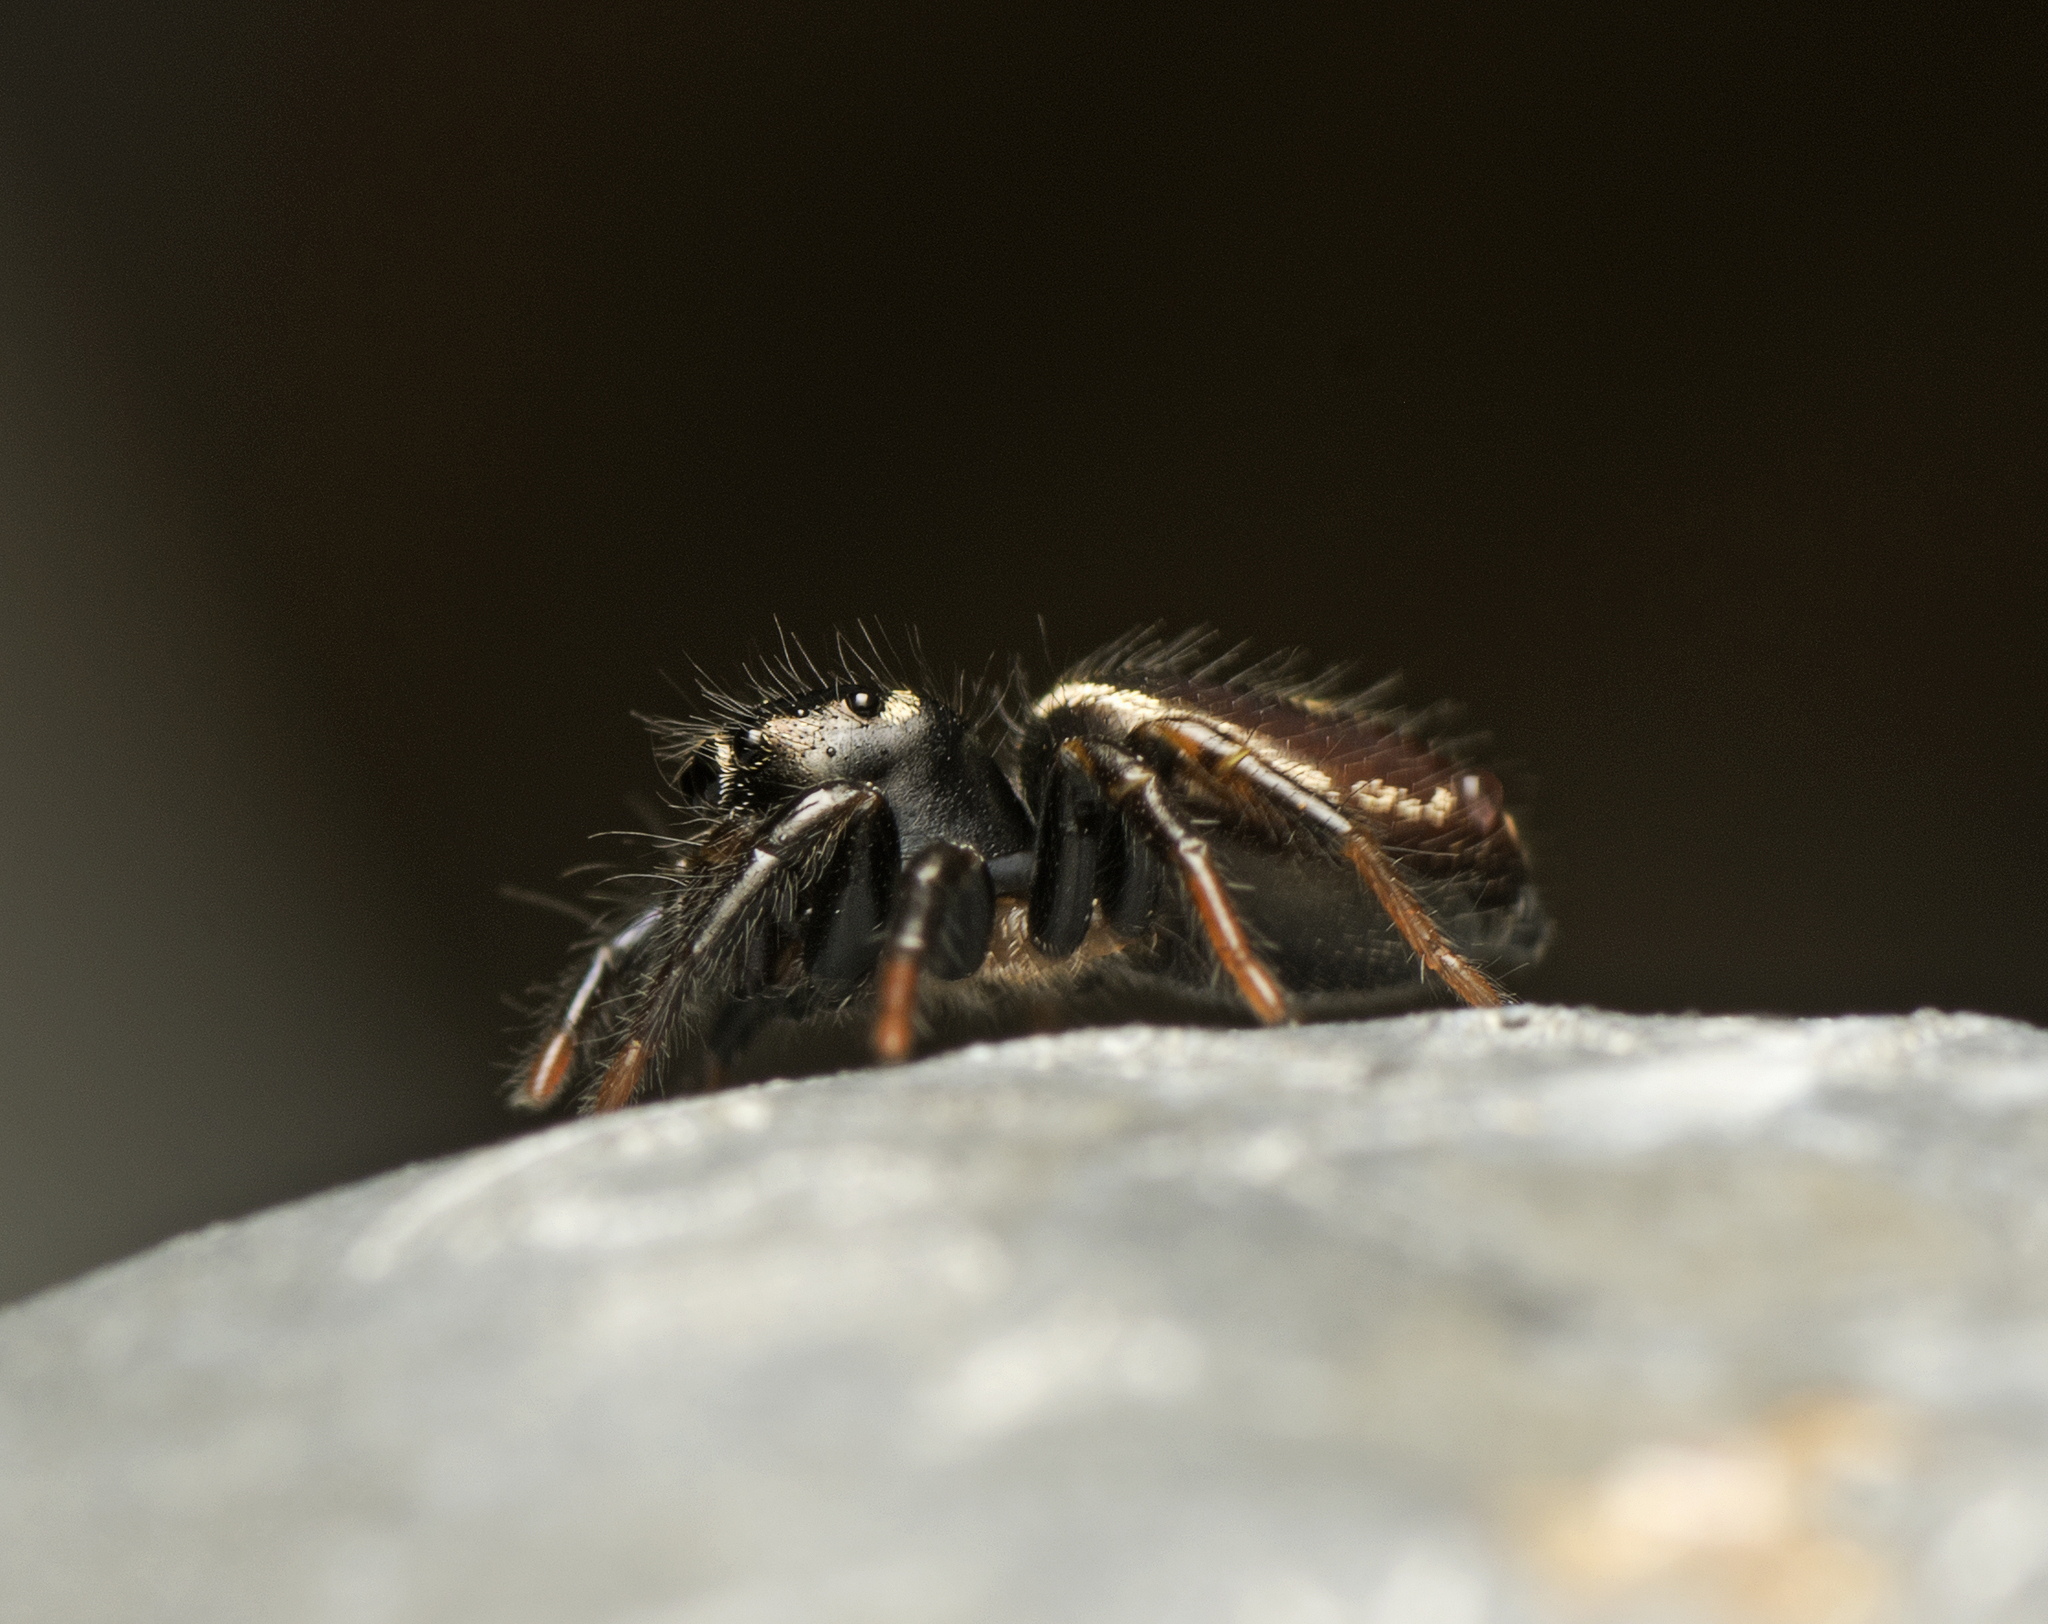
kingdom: Animalia
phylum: Arthropoda
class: Arachnida
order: Araneae
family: Salticidae
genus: Zenodorus
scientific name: Zenodorus orbiculatus
